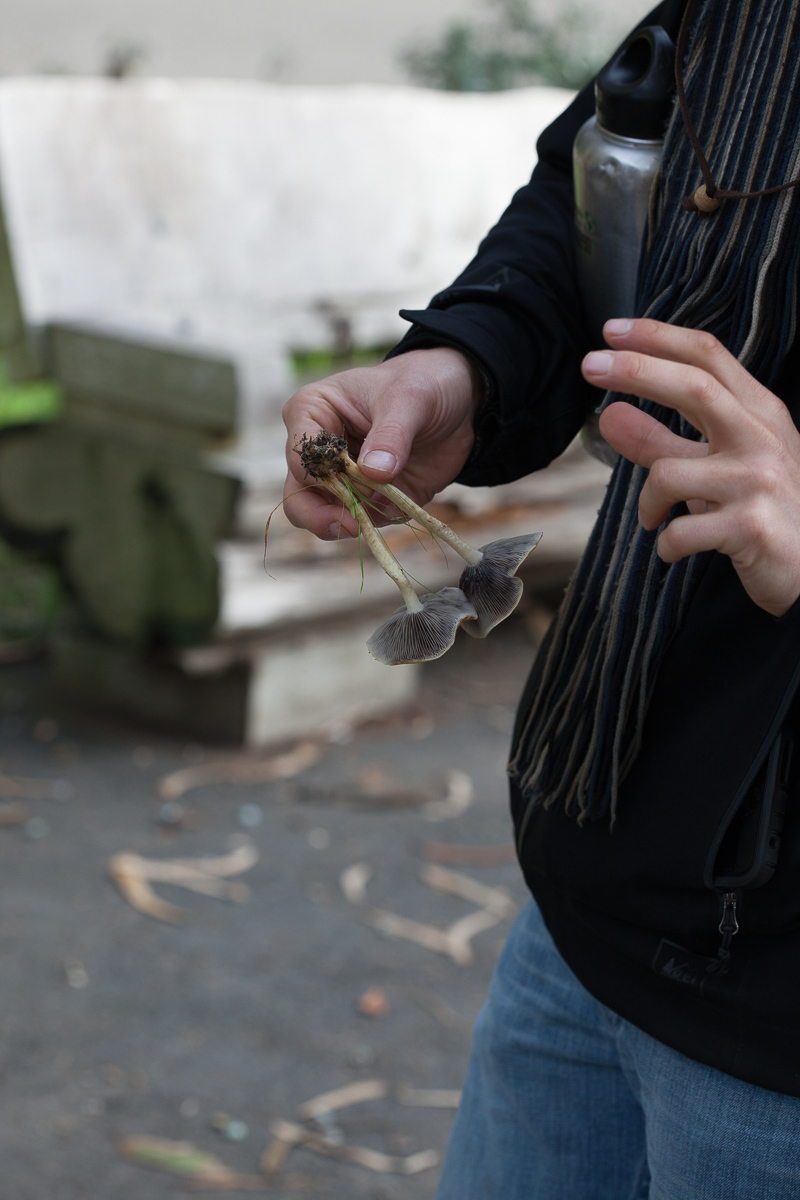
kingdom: Fungi
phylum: Basidiomycota
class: Agaricomycetes
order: Agaricales
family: Strophariaceae
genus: Leratiomyces
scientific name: Leratiomyces percevalii
